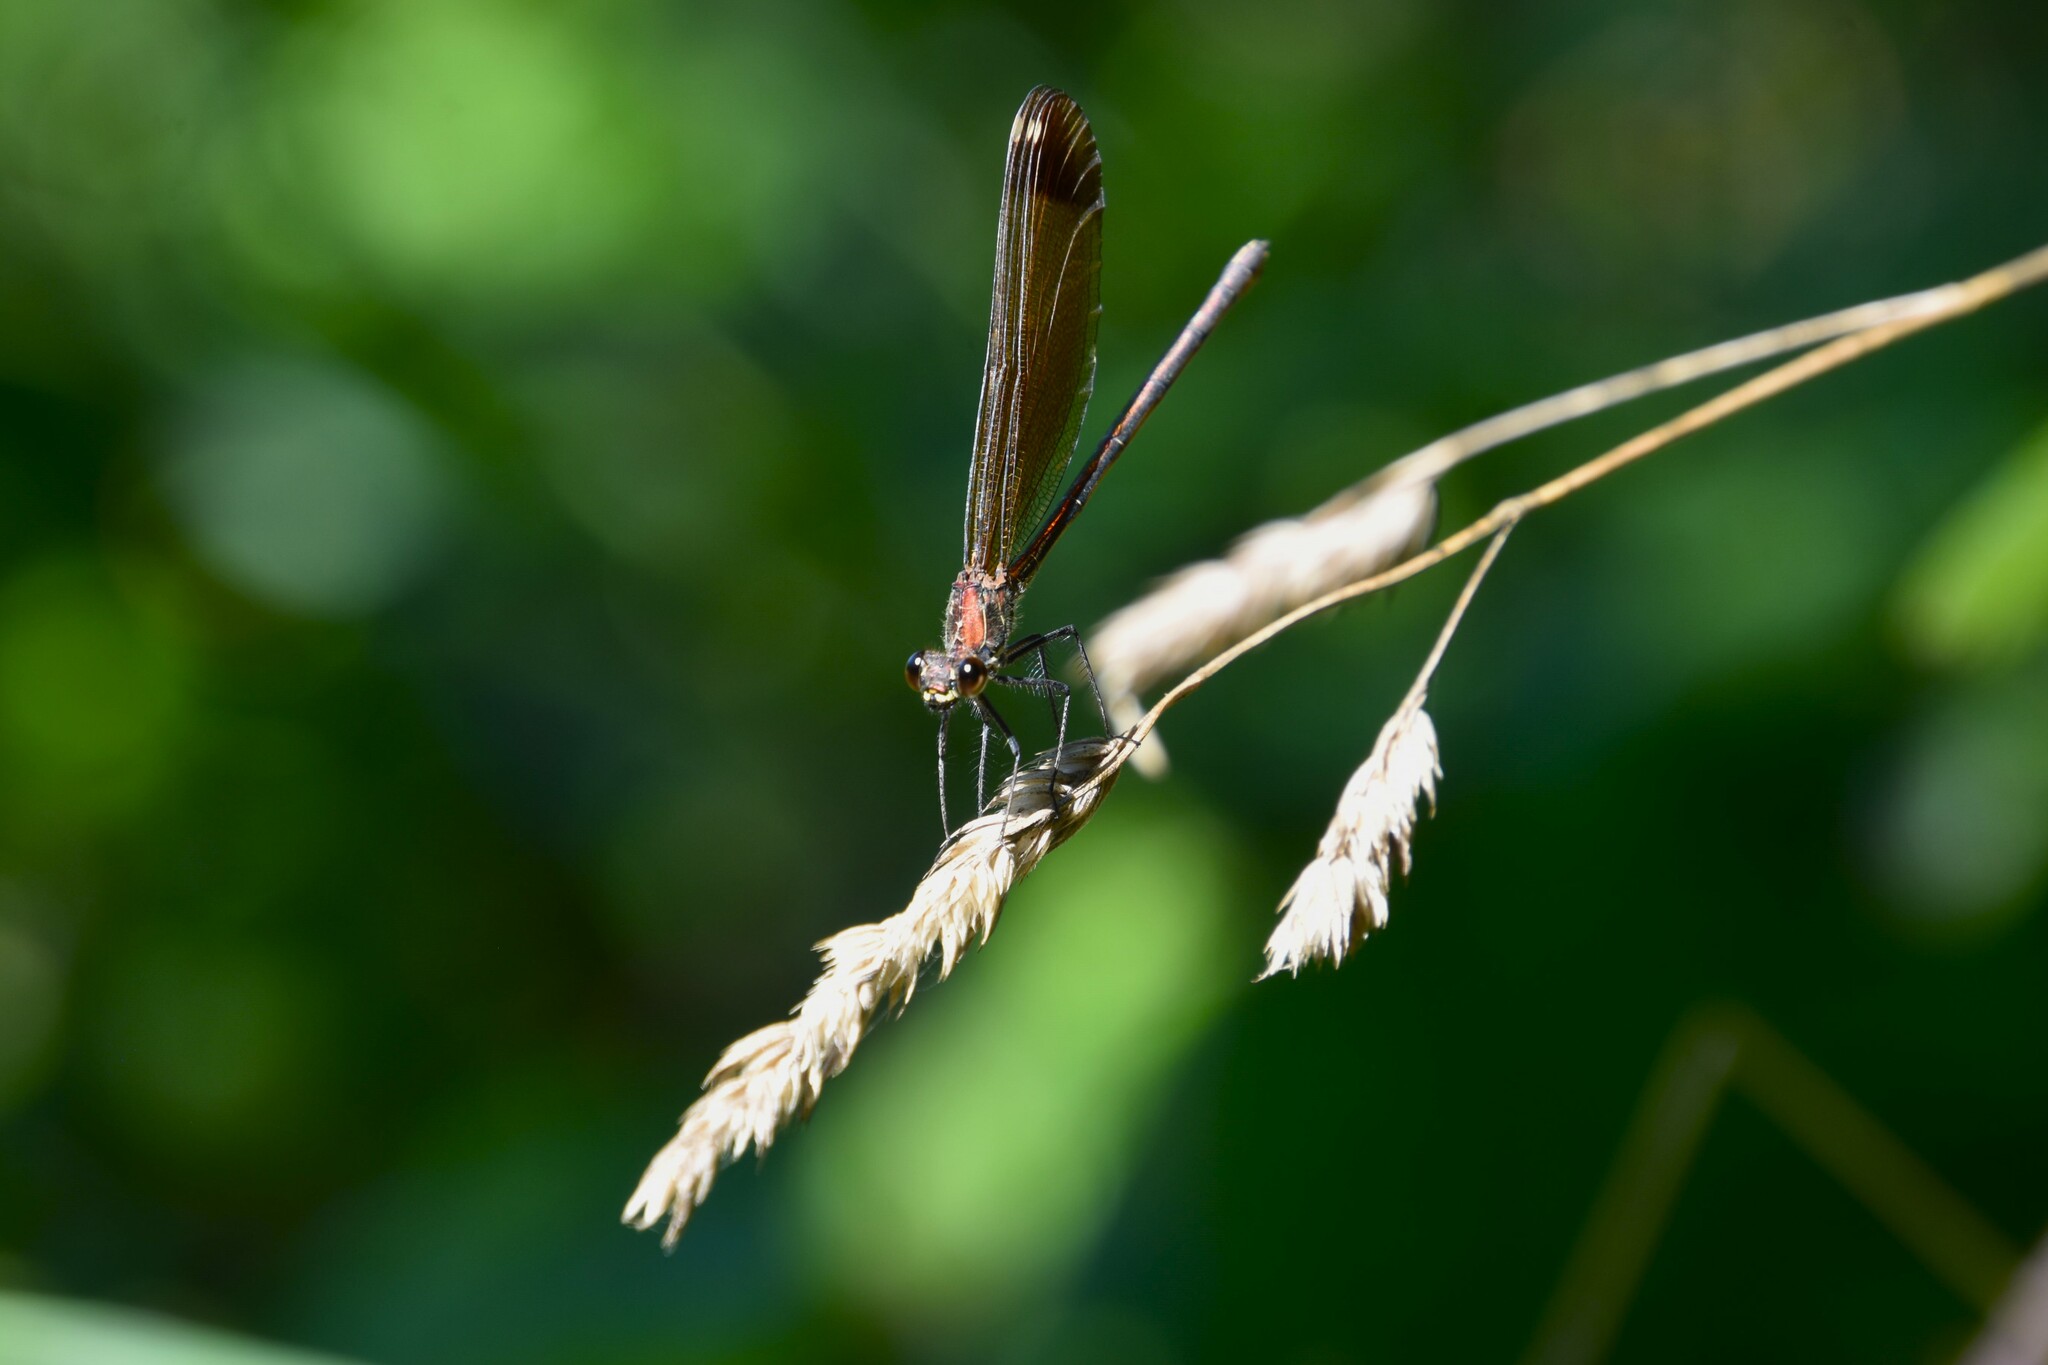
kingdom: Animalia
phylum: Arthropoda
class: Insecta
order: Odonata
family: Calopterygidae
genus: Calopteryx
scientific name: Calopteryx haemorrhoidalis
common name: Copper demoiselle
